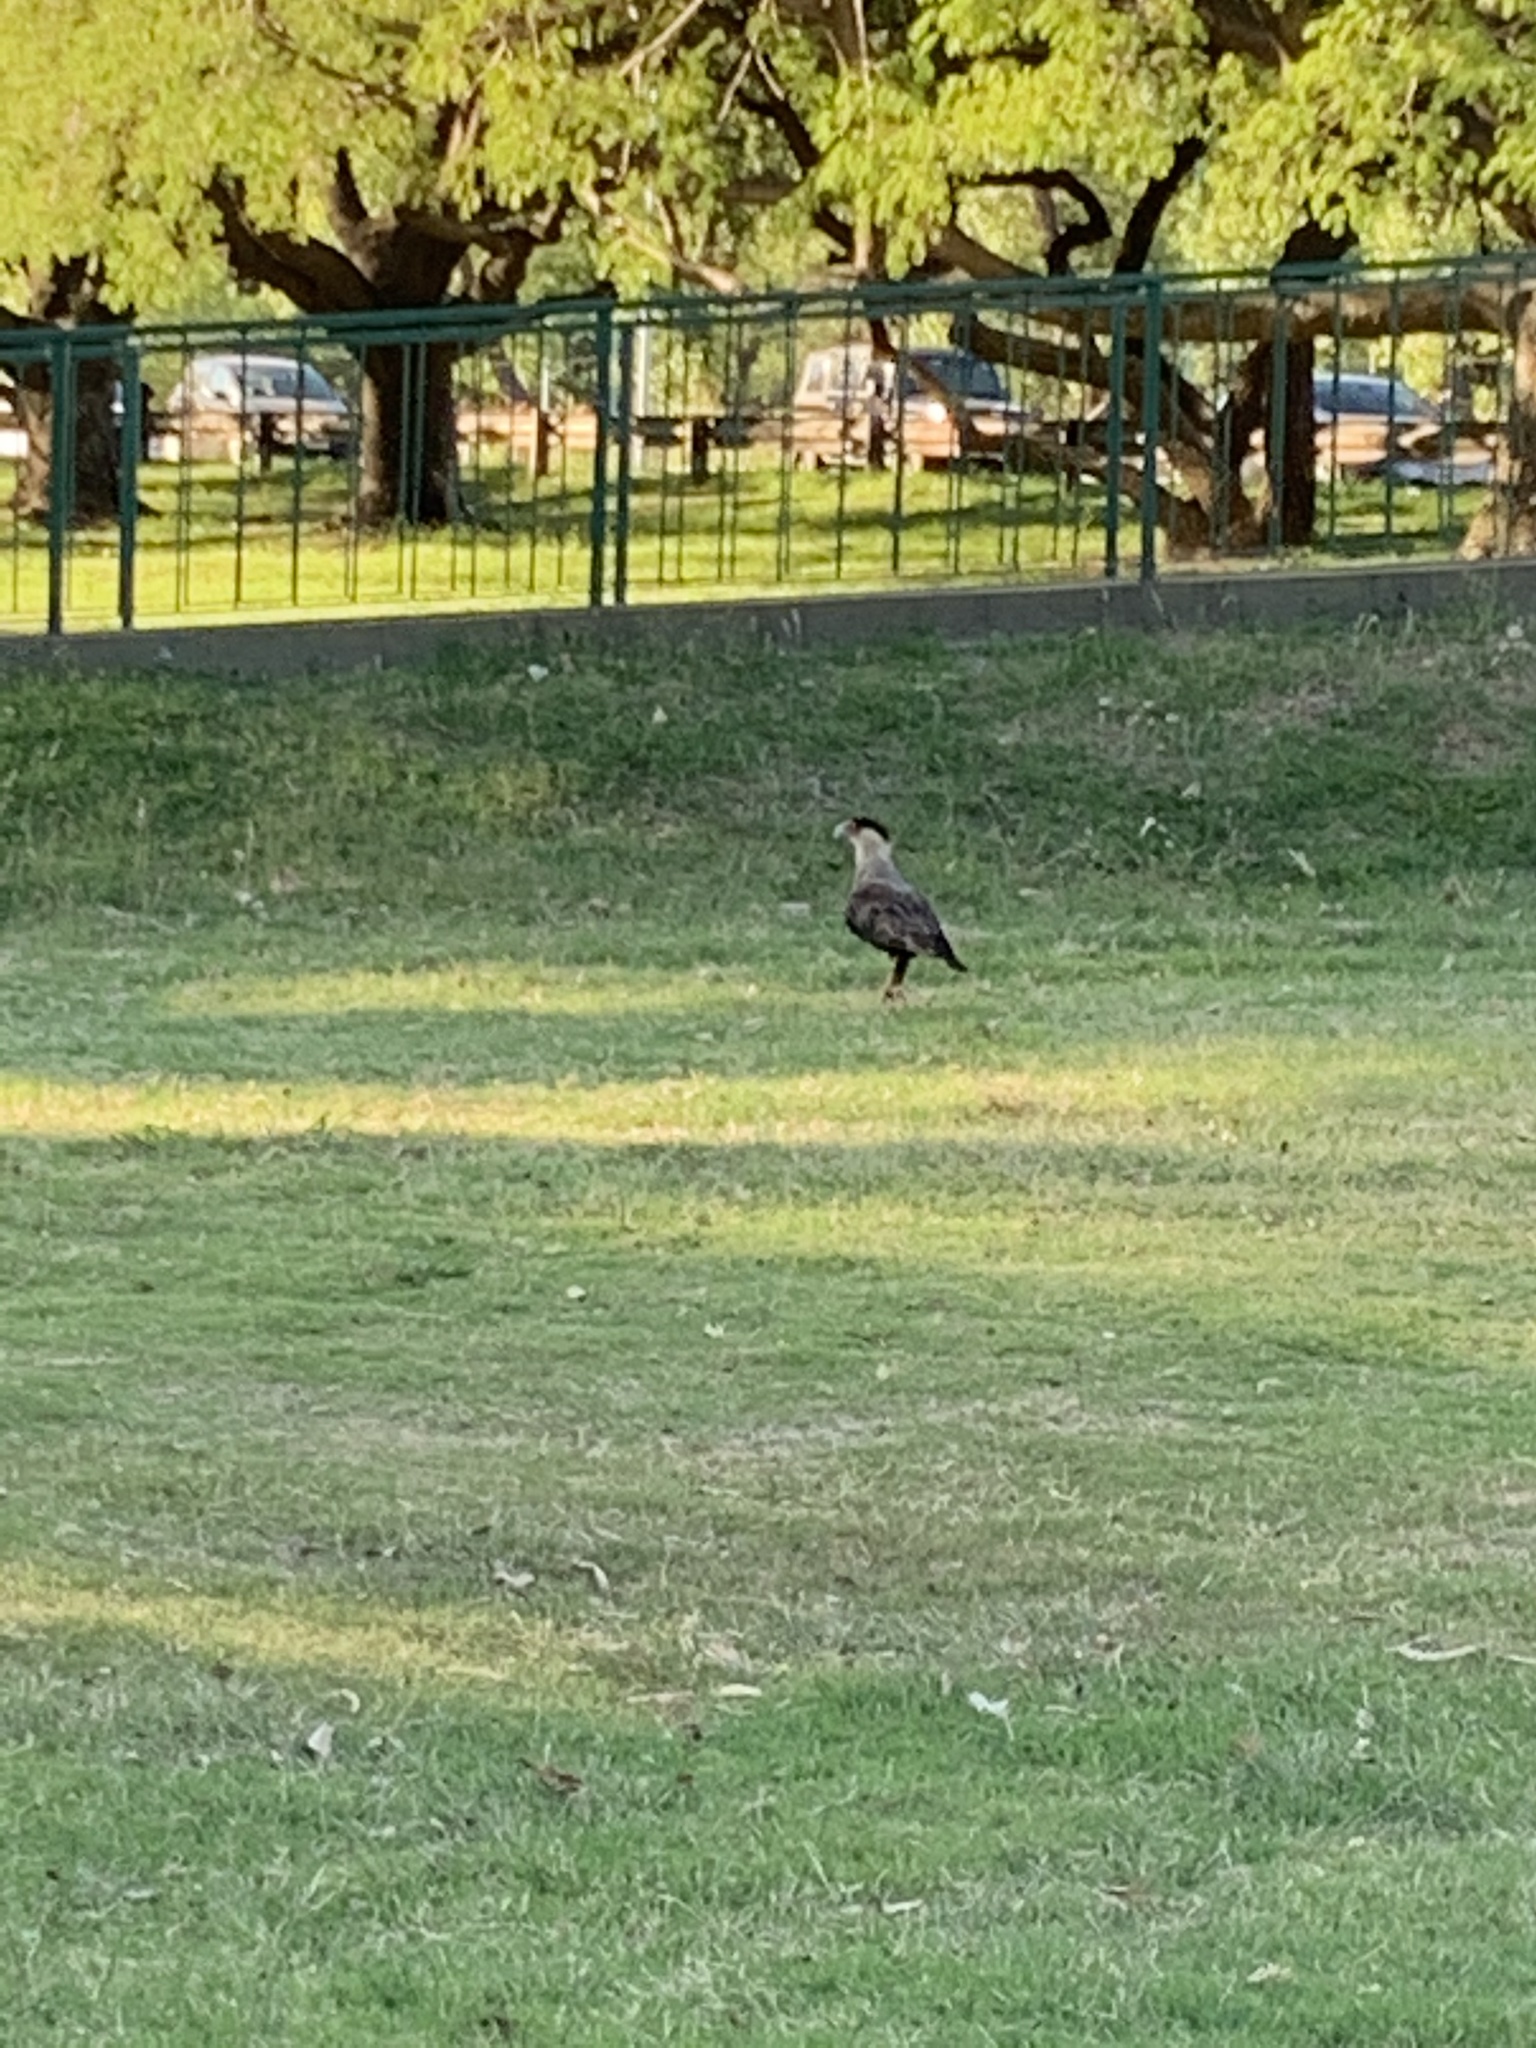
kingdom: Animalia
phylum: Chordata
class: Aves
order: Falconiformes
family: Falconidae
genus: Caracara
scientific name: Caracara plancus
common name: Southern caracara
